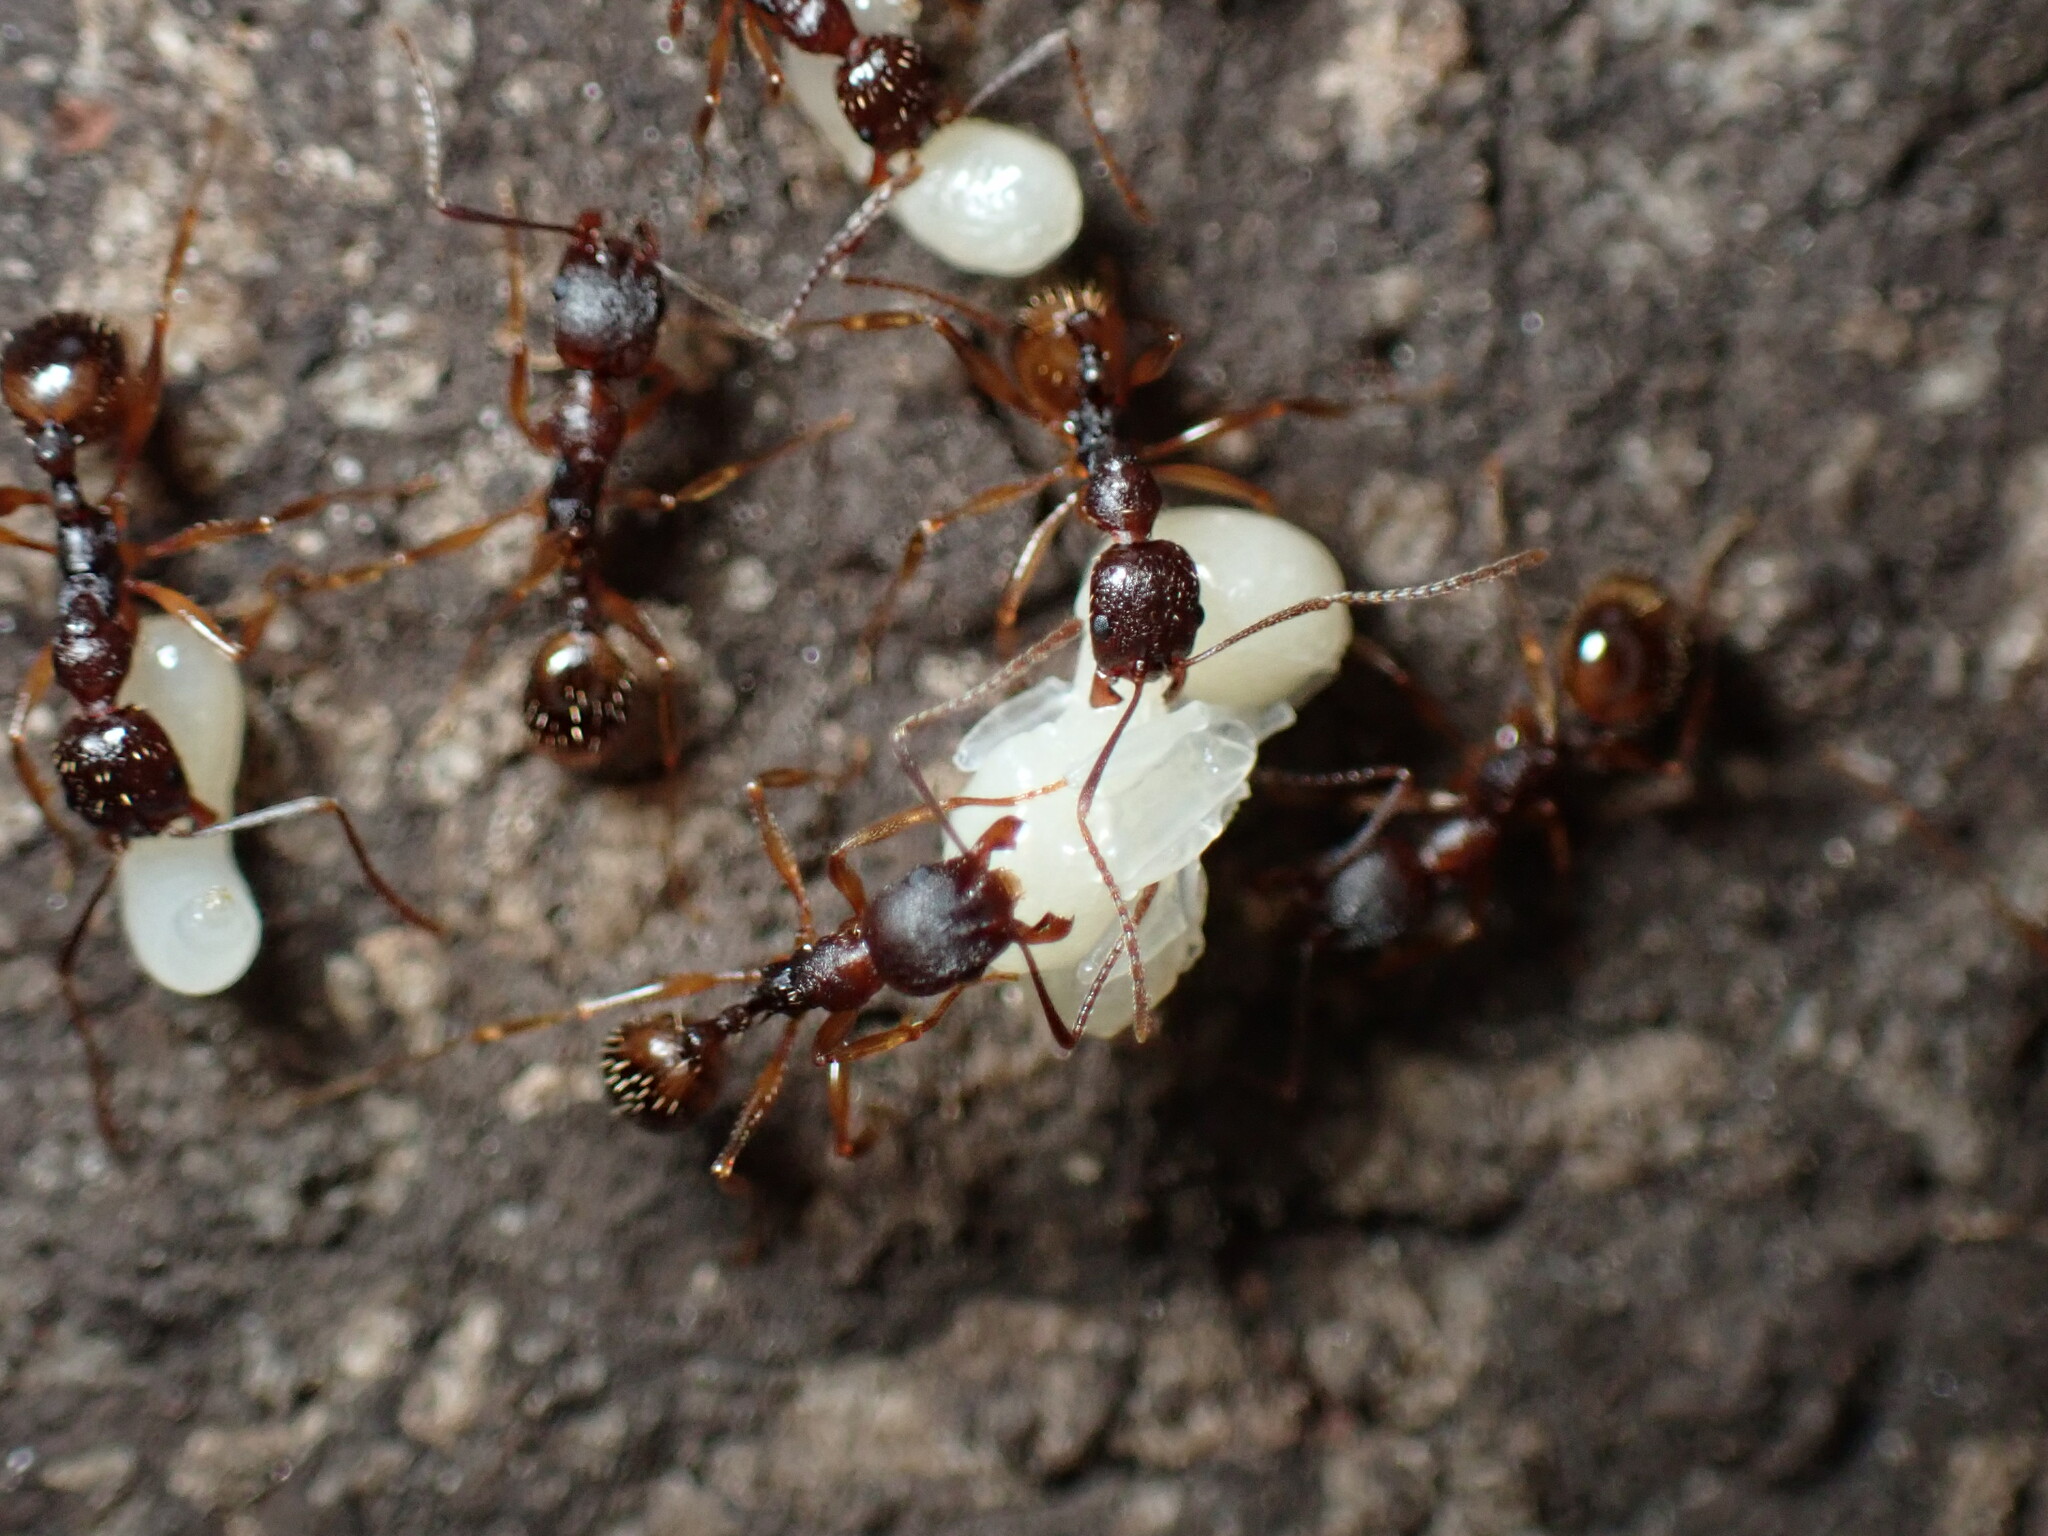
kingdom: Animalia
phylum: Arthropoda
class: Insecta
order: Hymenoptera
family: Formicidae
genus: Aphaenogaster
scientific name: Aphaenogaster rudis
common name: Winnow ant
